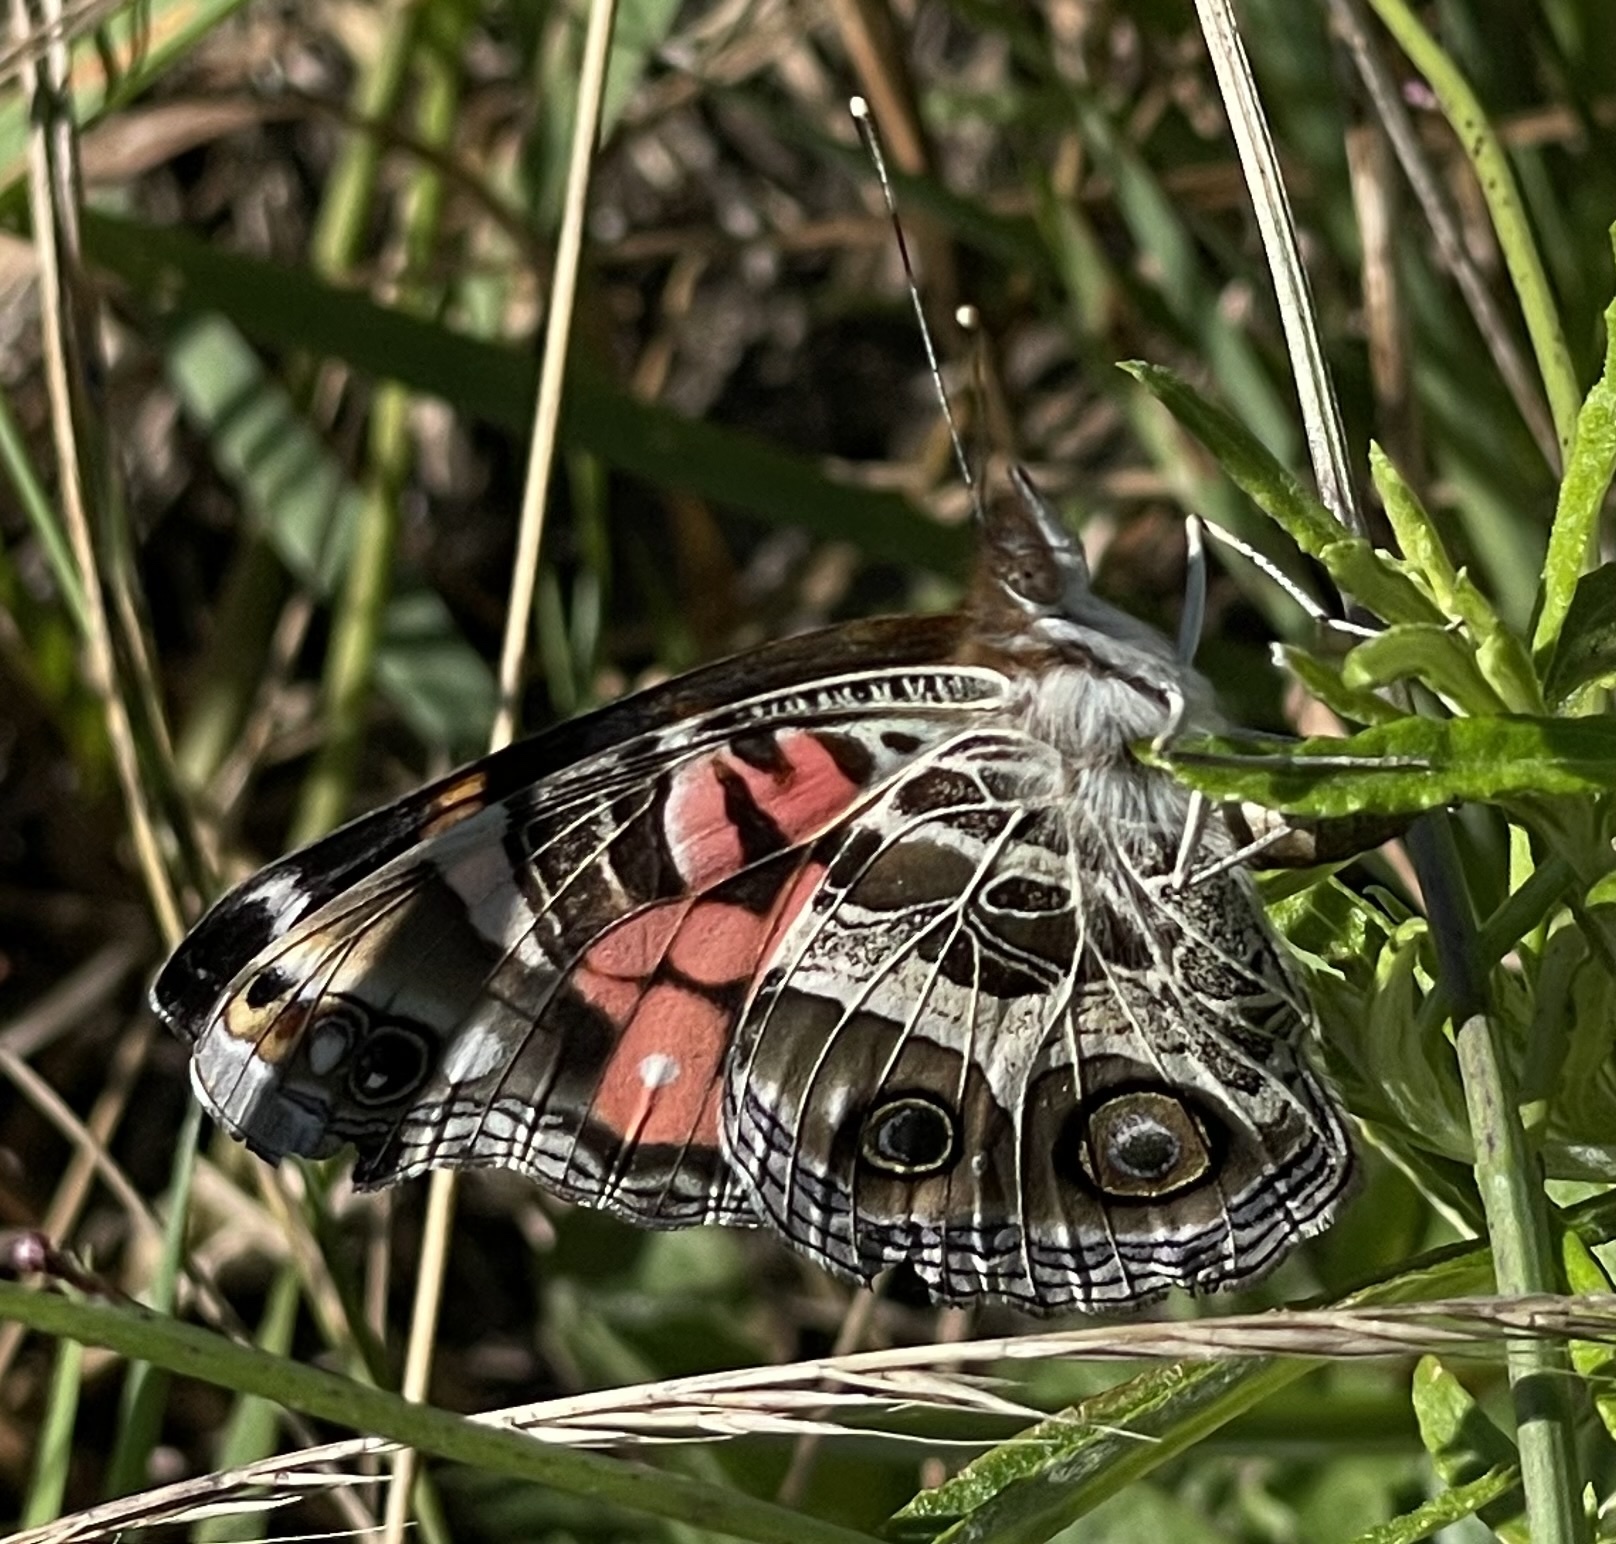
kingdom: Animalia
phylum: Arthropoda
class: Insecta
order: Lepidoptera
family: Nymphalidae
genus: Vanessa
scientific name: Vanessa virginiensis
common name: American lady
